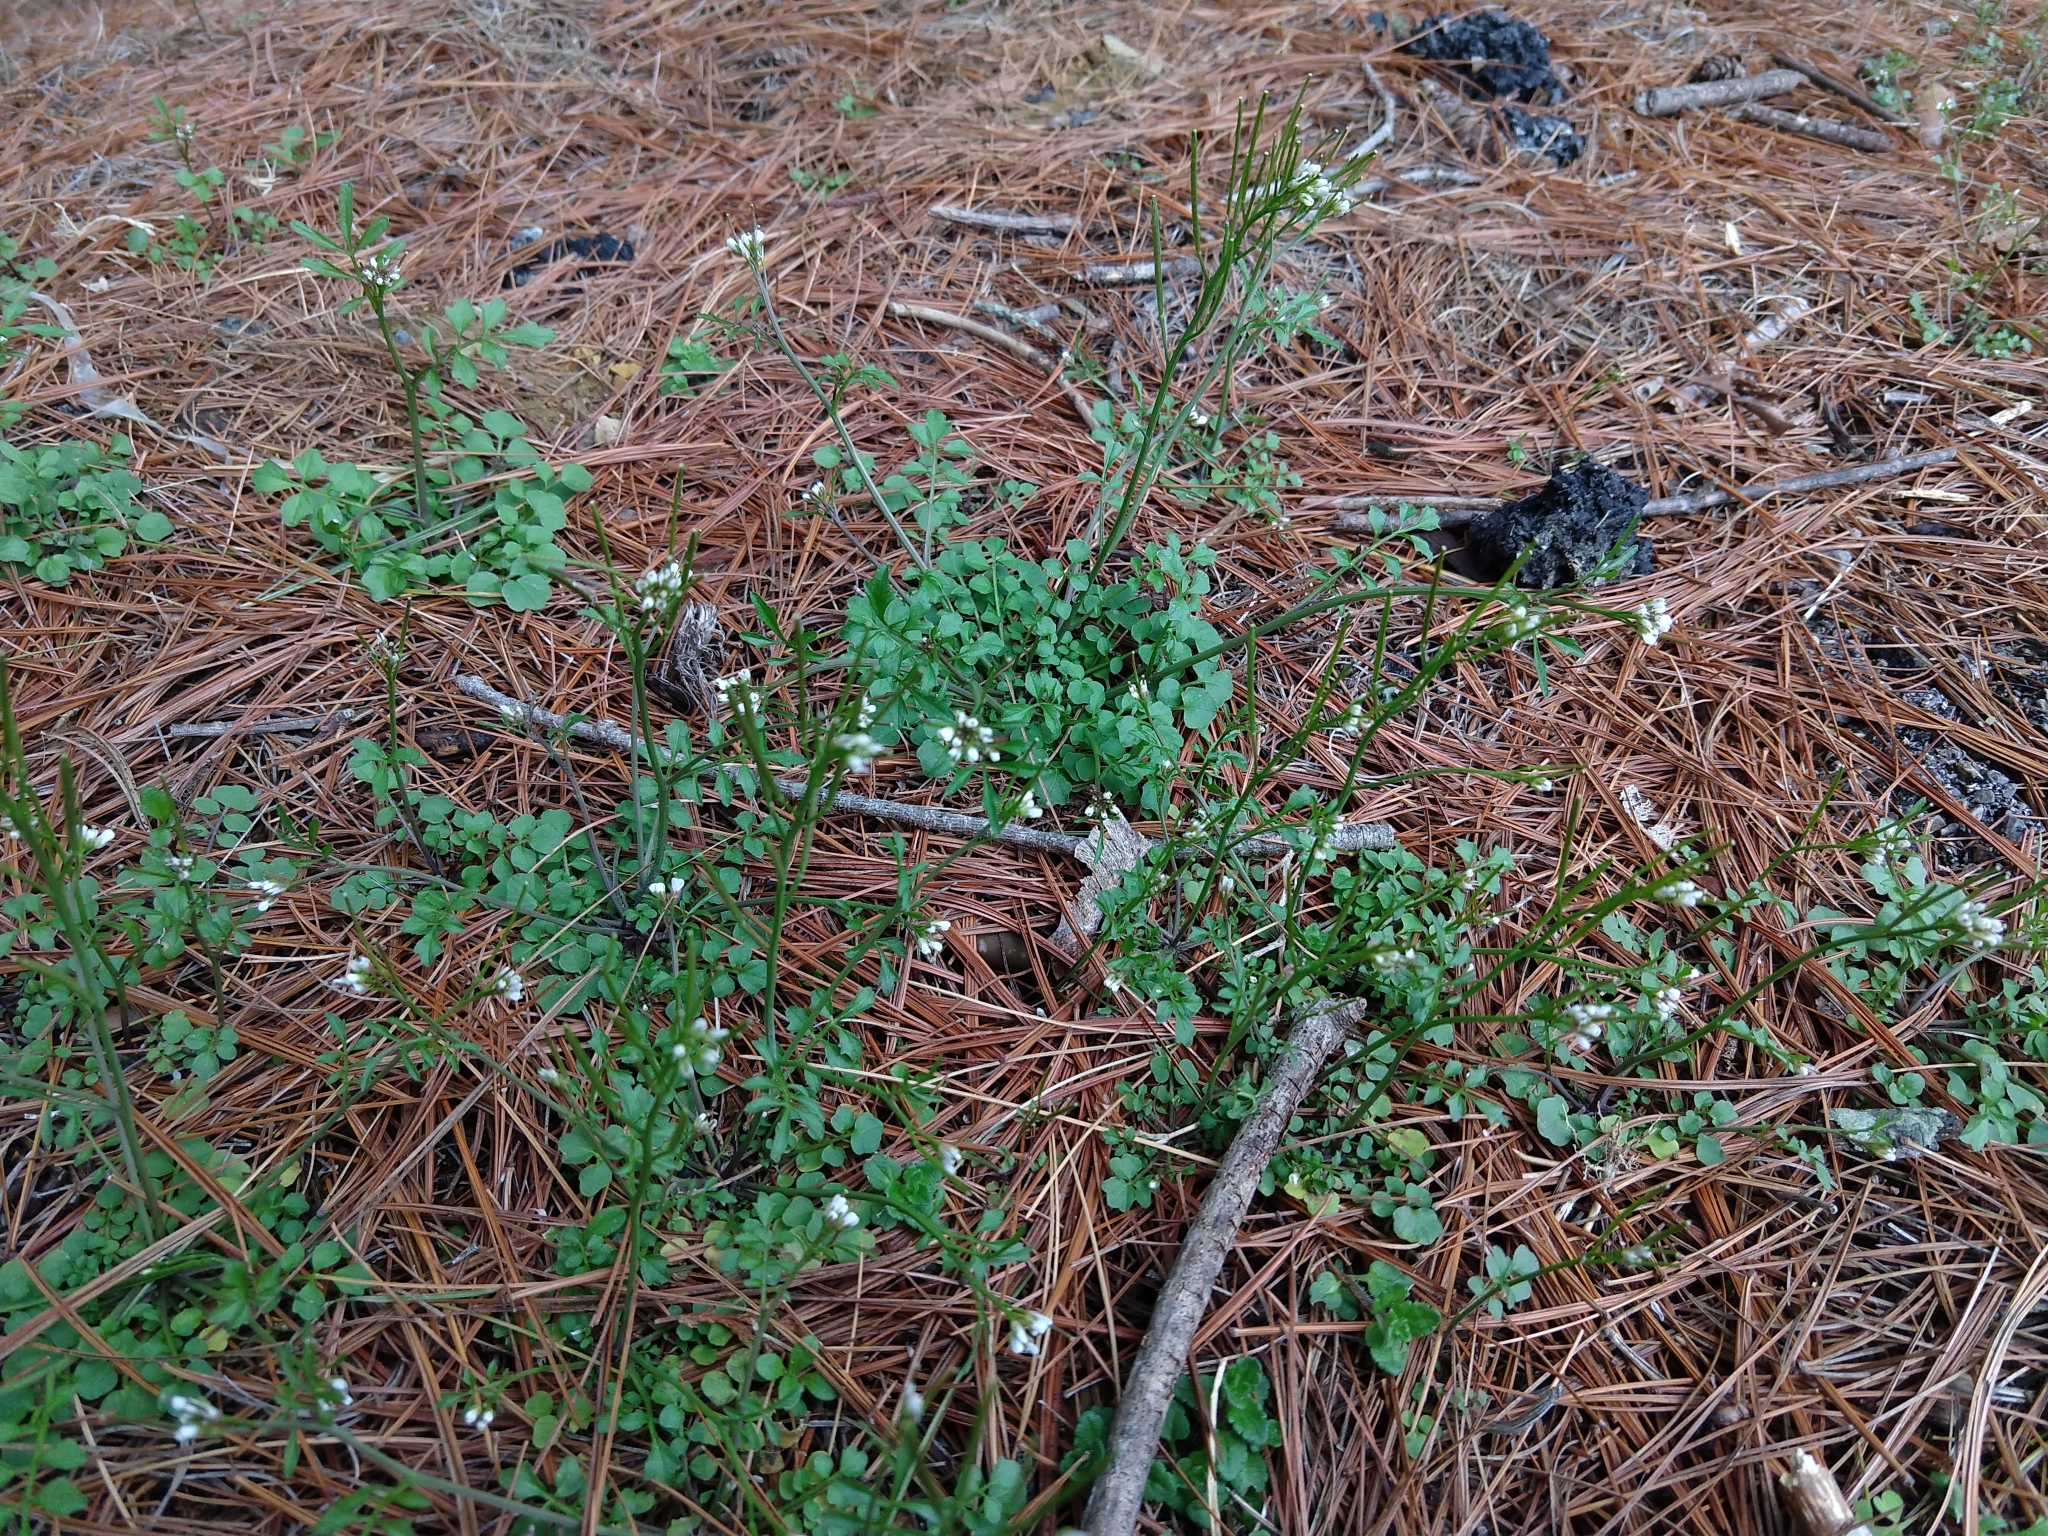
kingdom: Plantae
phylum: Tracheophyta
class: Magnoliopsida
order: Brassicales
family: Brassicaceae
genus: Cardamine
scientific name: Cardamine hirsuta
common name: Hairy bittercress
